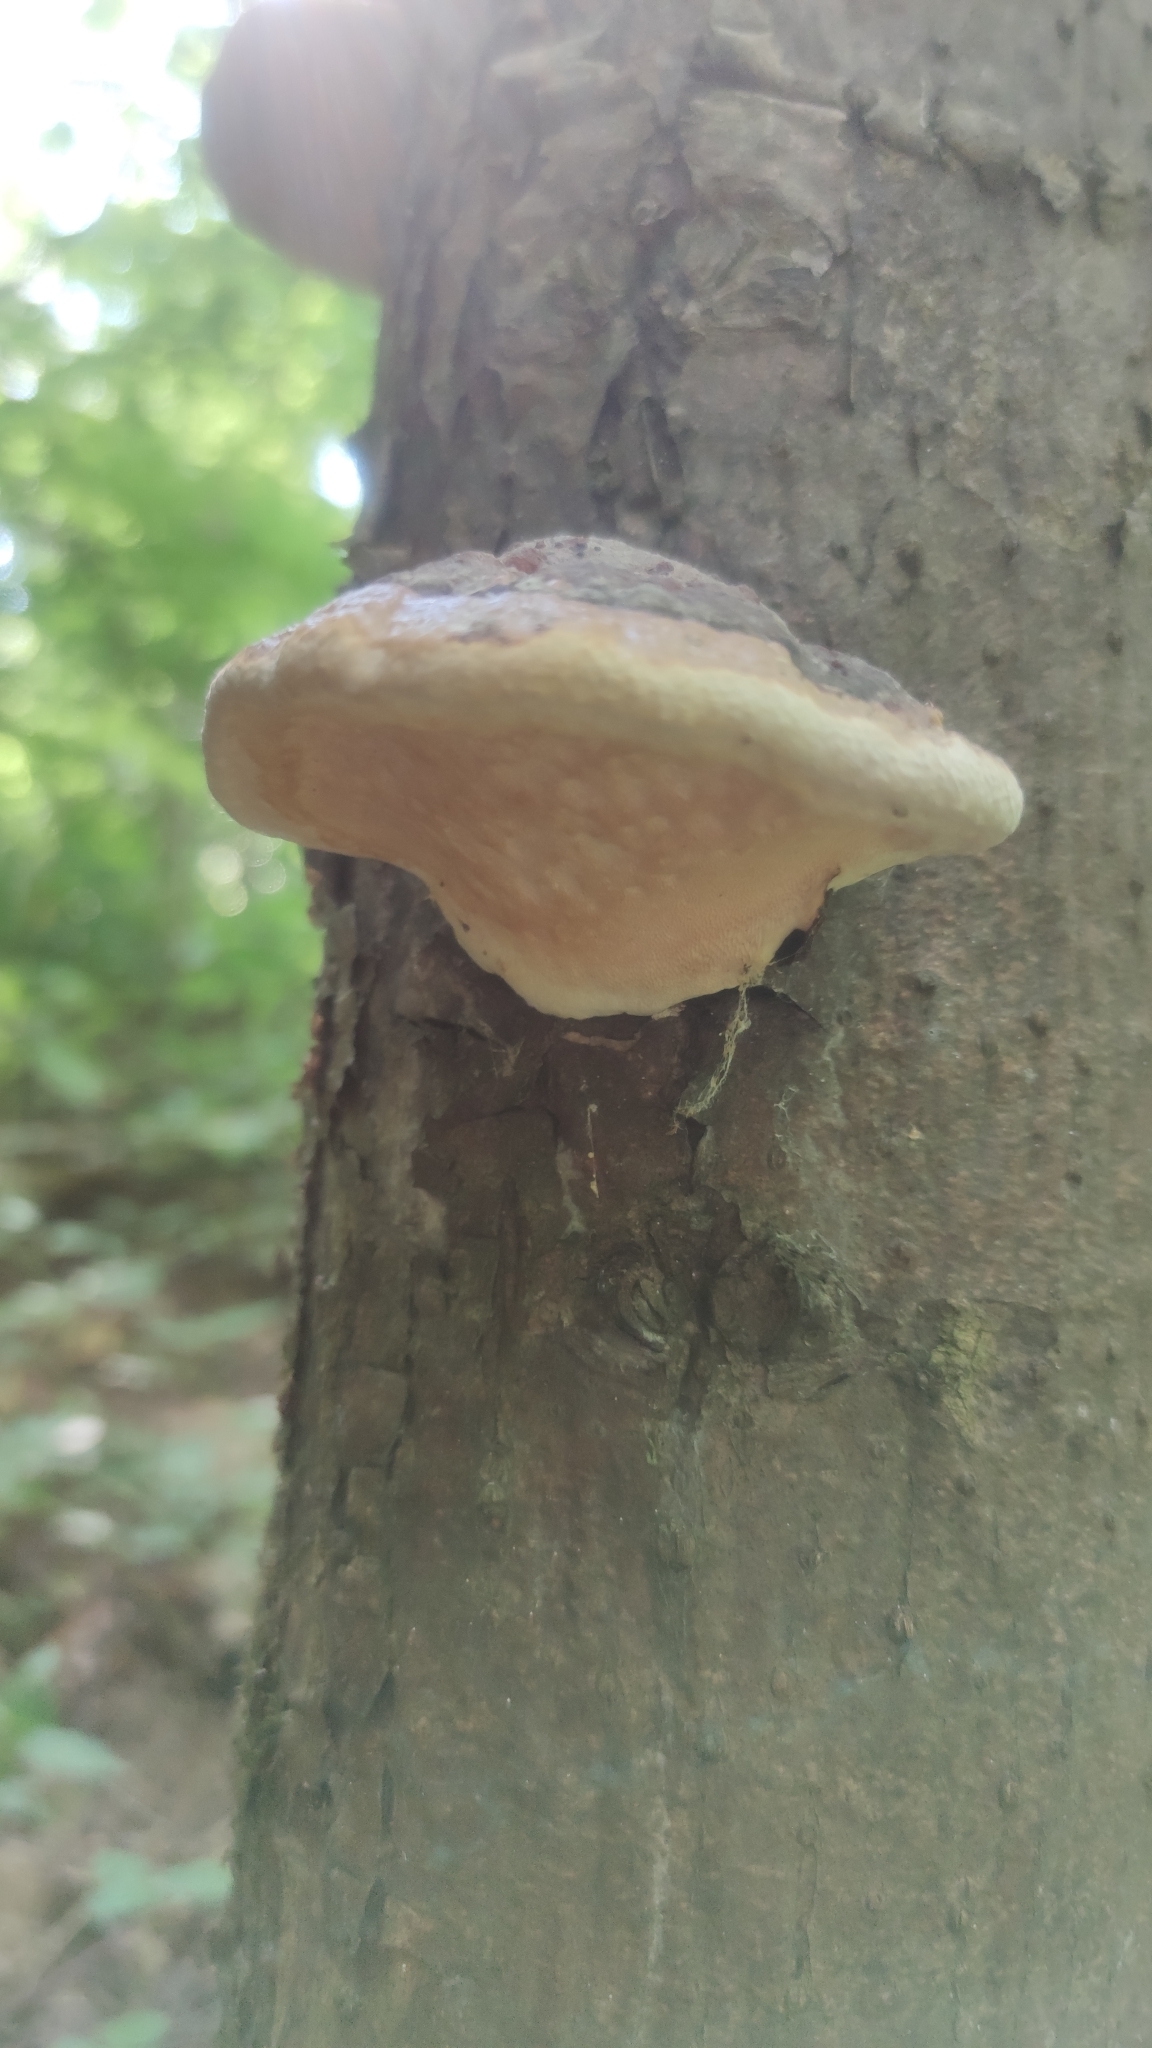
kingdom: Fungi
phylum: Basidiomycota
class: Agaricomycetes
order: Polyporales
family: Fomitopsidaceae
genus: Fomitopsis
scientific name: Fomitopsis pinicola
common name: Red-belted bracket
